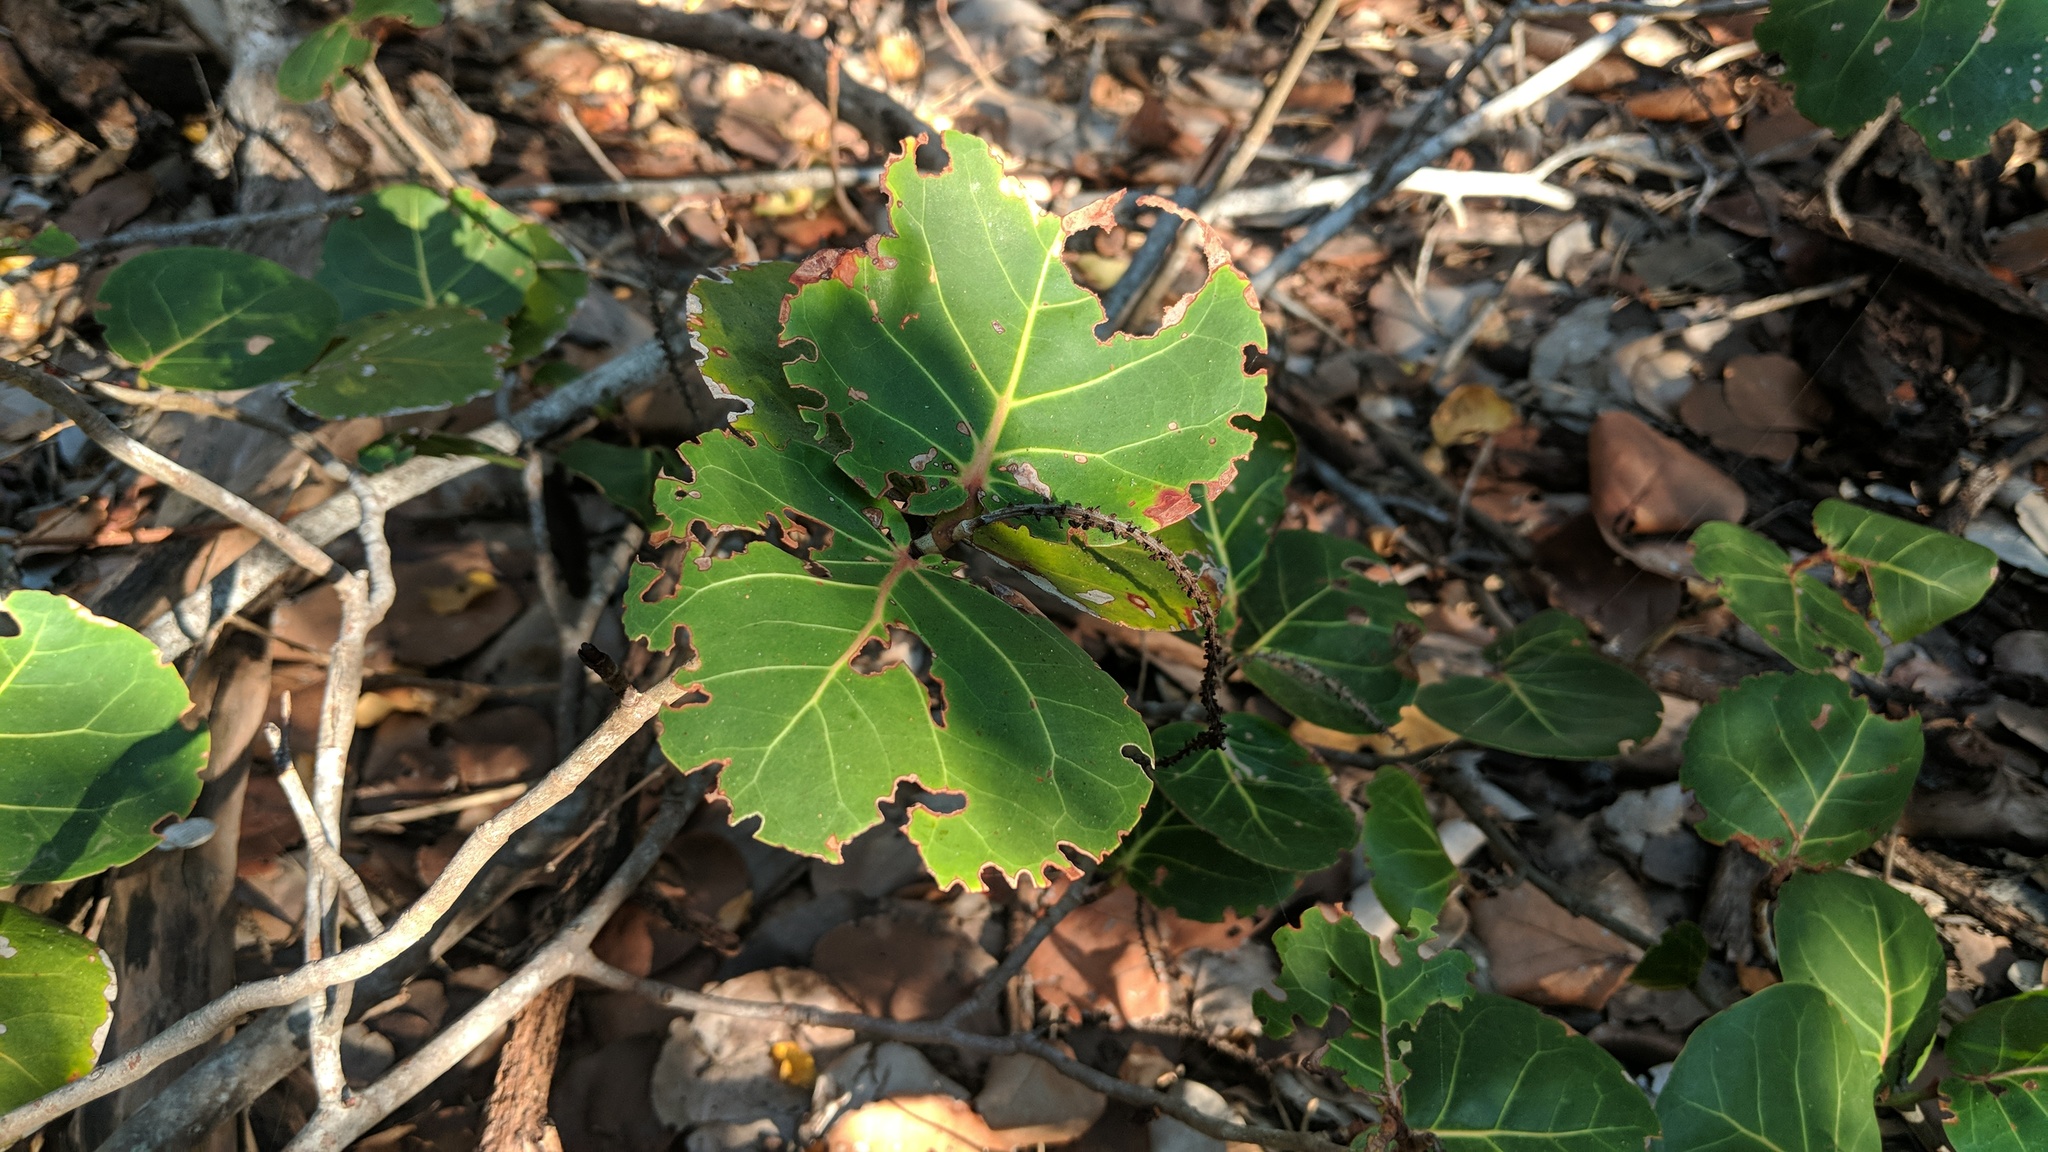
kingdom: Plantae
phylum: Tracheophyta
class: Magnoliopsida
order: Caryophyllales
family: Polygonaceae
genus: Coccoloba
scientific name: Coccoloba uvifera
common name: Seagrape
